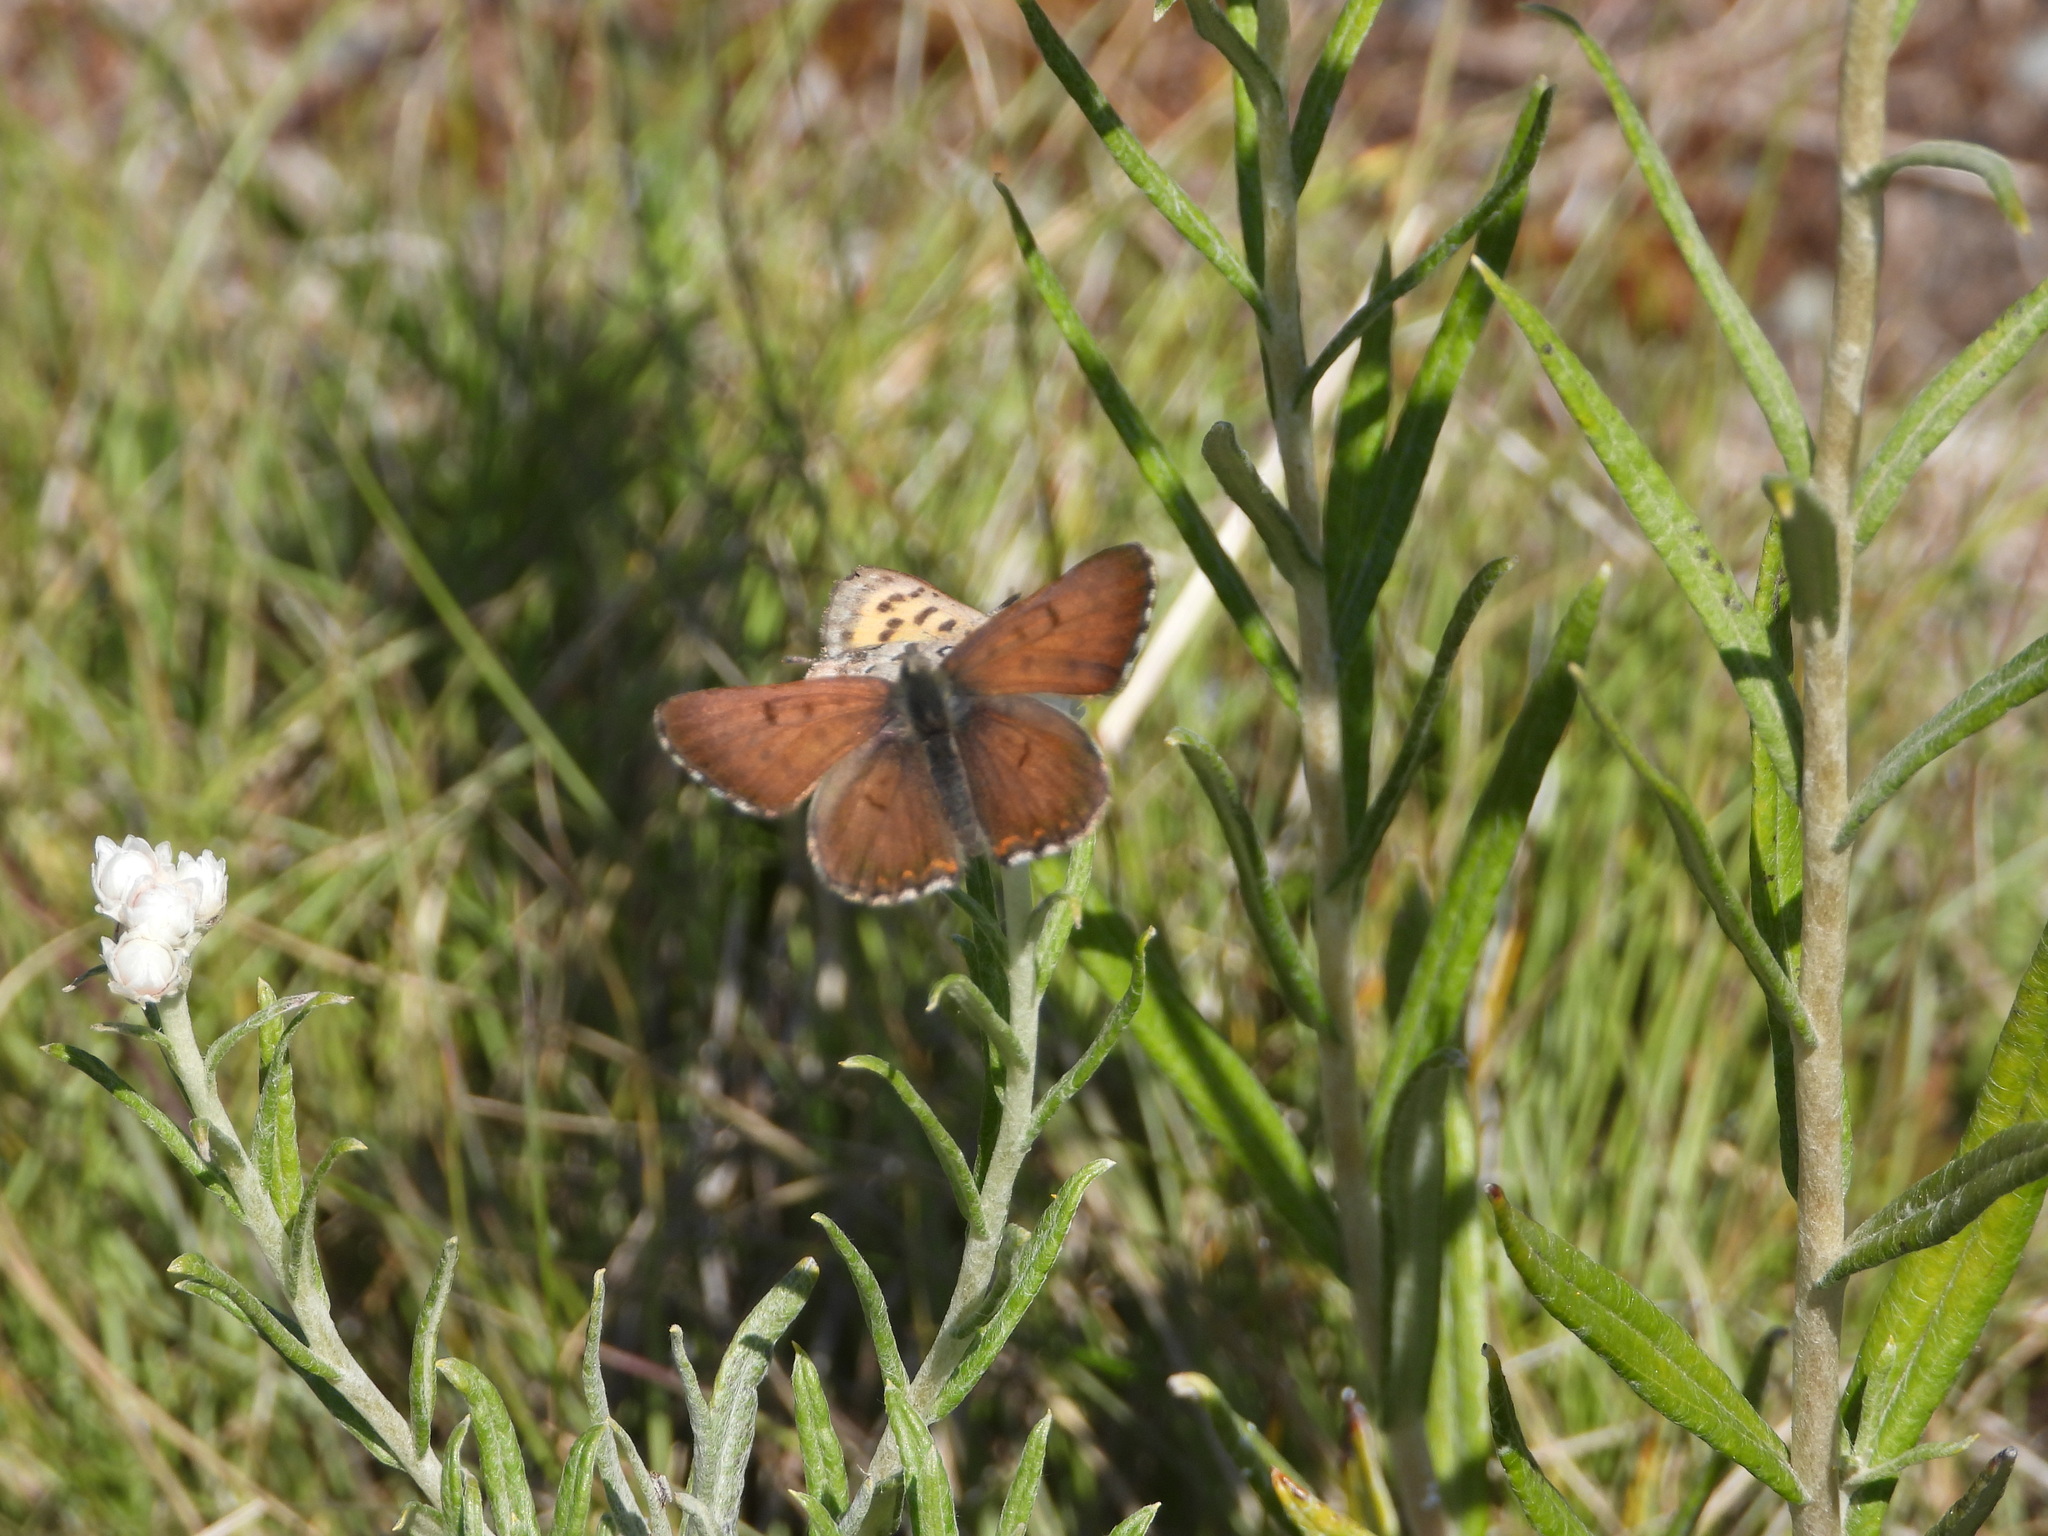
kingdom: Animalia
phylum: Arthropoda
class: Insecta
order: Lepidoptera
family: Lycaenidae
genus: Tharsalea
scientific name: Tharsalea mariposa
